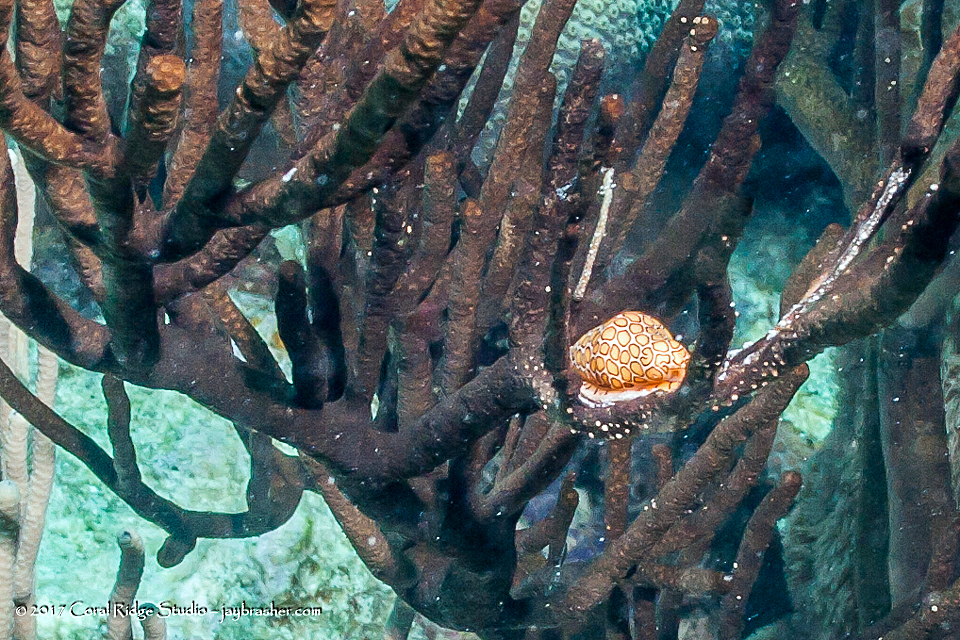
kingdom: Animalia
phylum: Mollusca
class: Gastropoda
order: Littorinimorpha
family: Ovulidae
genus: Cyphoma
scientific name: Cyphoma gibbosum
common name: Flamingo tongue
